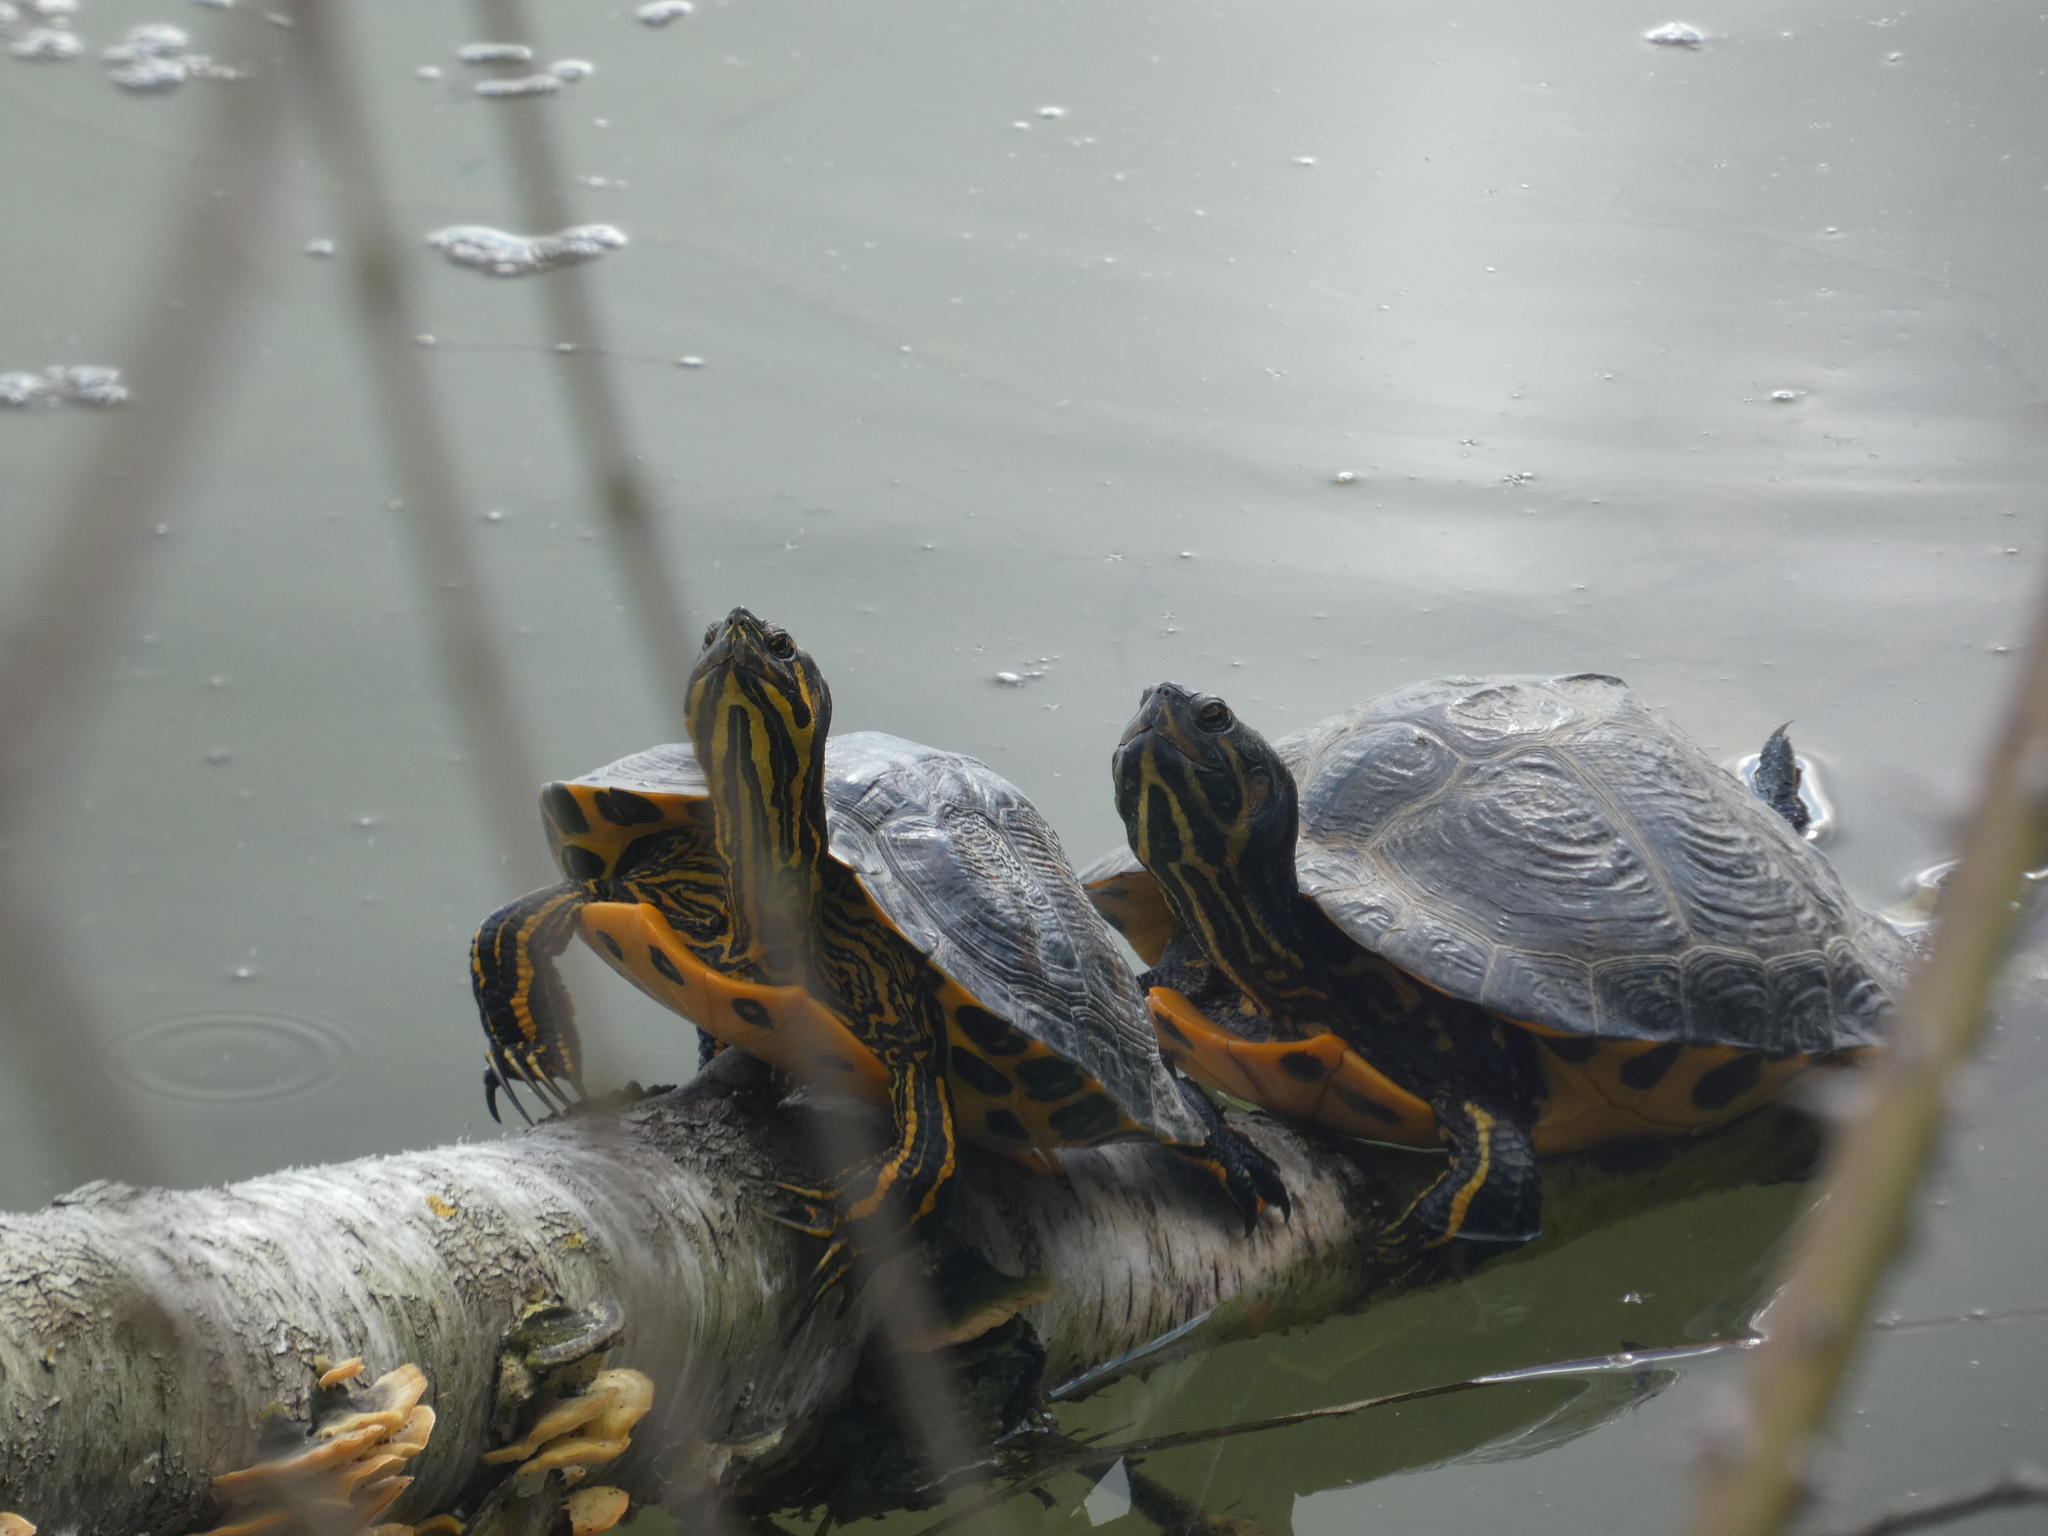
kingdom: Animalia
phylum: Chordata
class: Testudines
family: Emydidae
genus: Trachemys
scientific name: Trachemys scripta
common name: Slider
